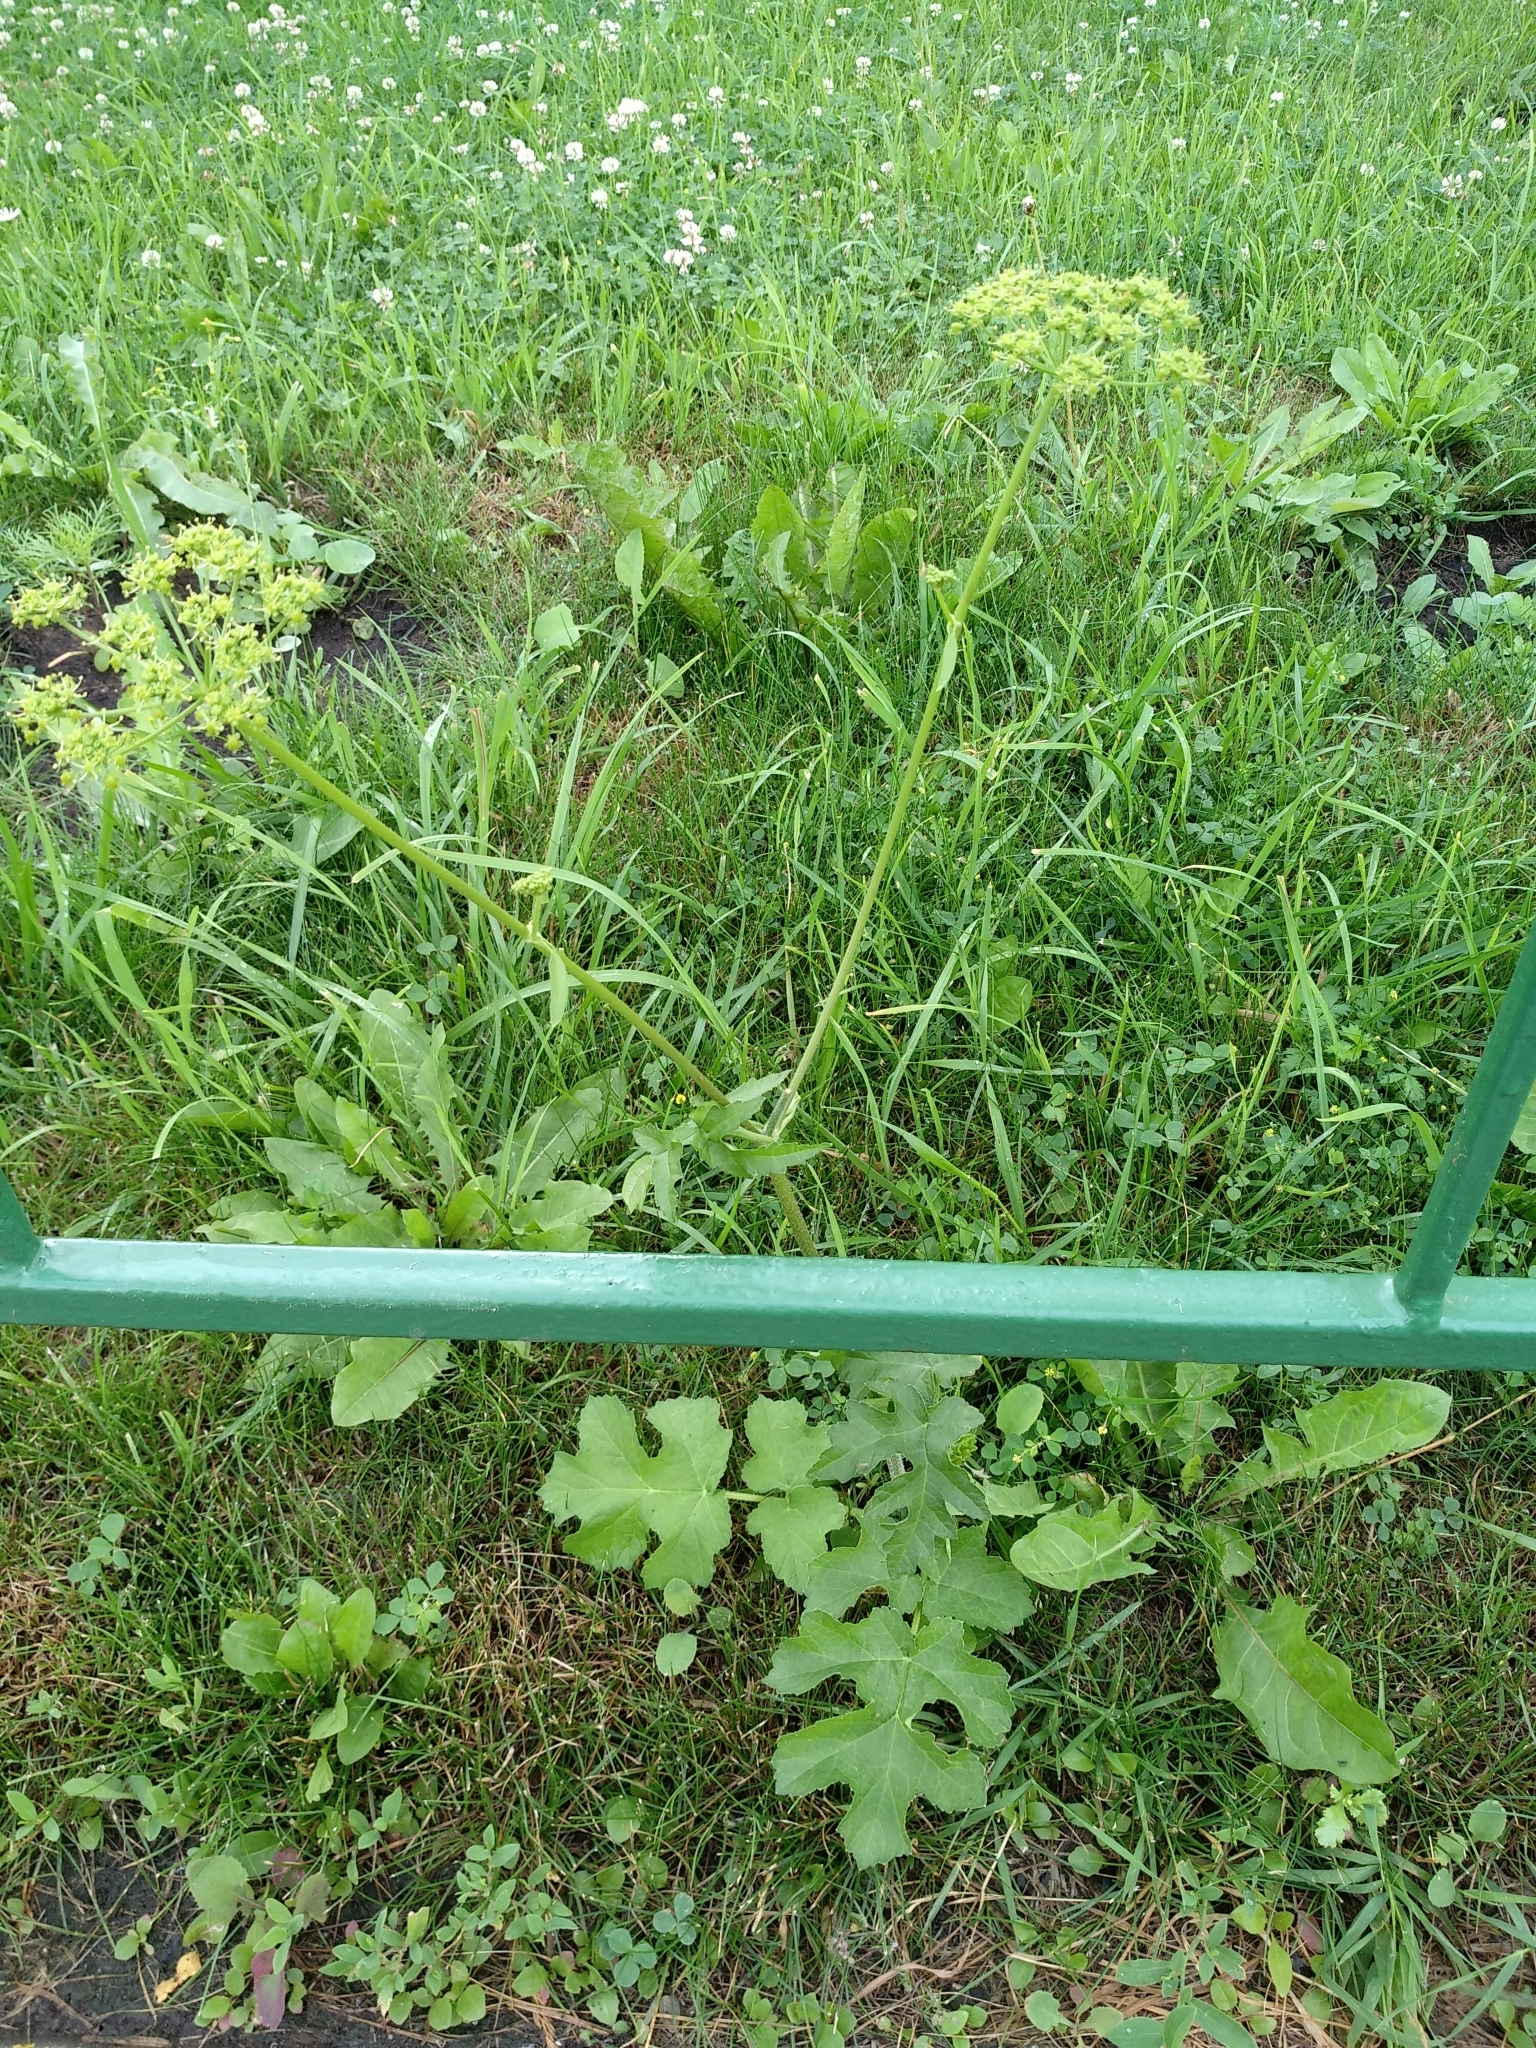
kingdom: Plantae
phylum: Tracheophyta
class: Magnoliopsida
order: Apiales
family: Apiaceae
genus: Heracleum
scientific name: Heracleum sphondylium
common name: Hogweed
